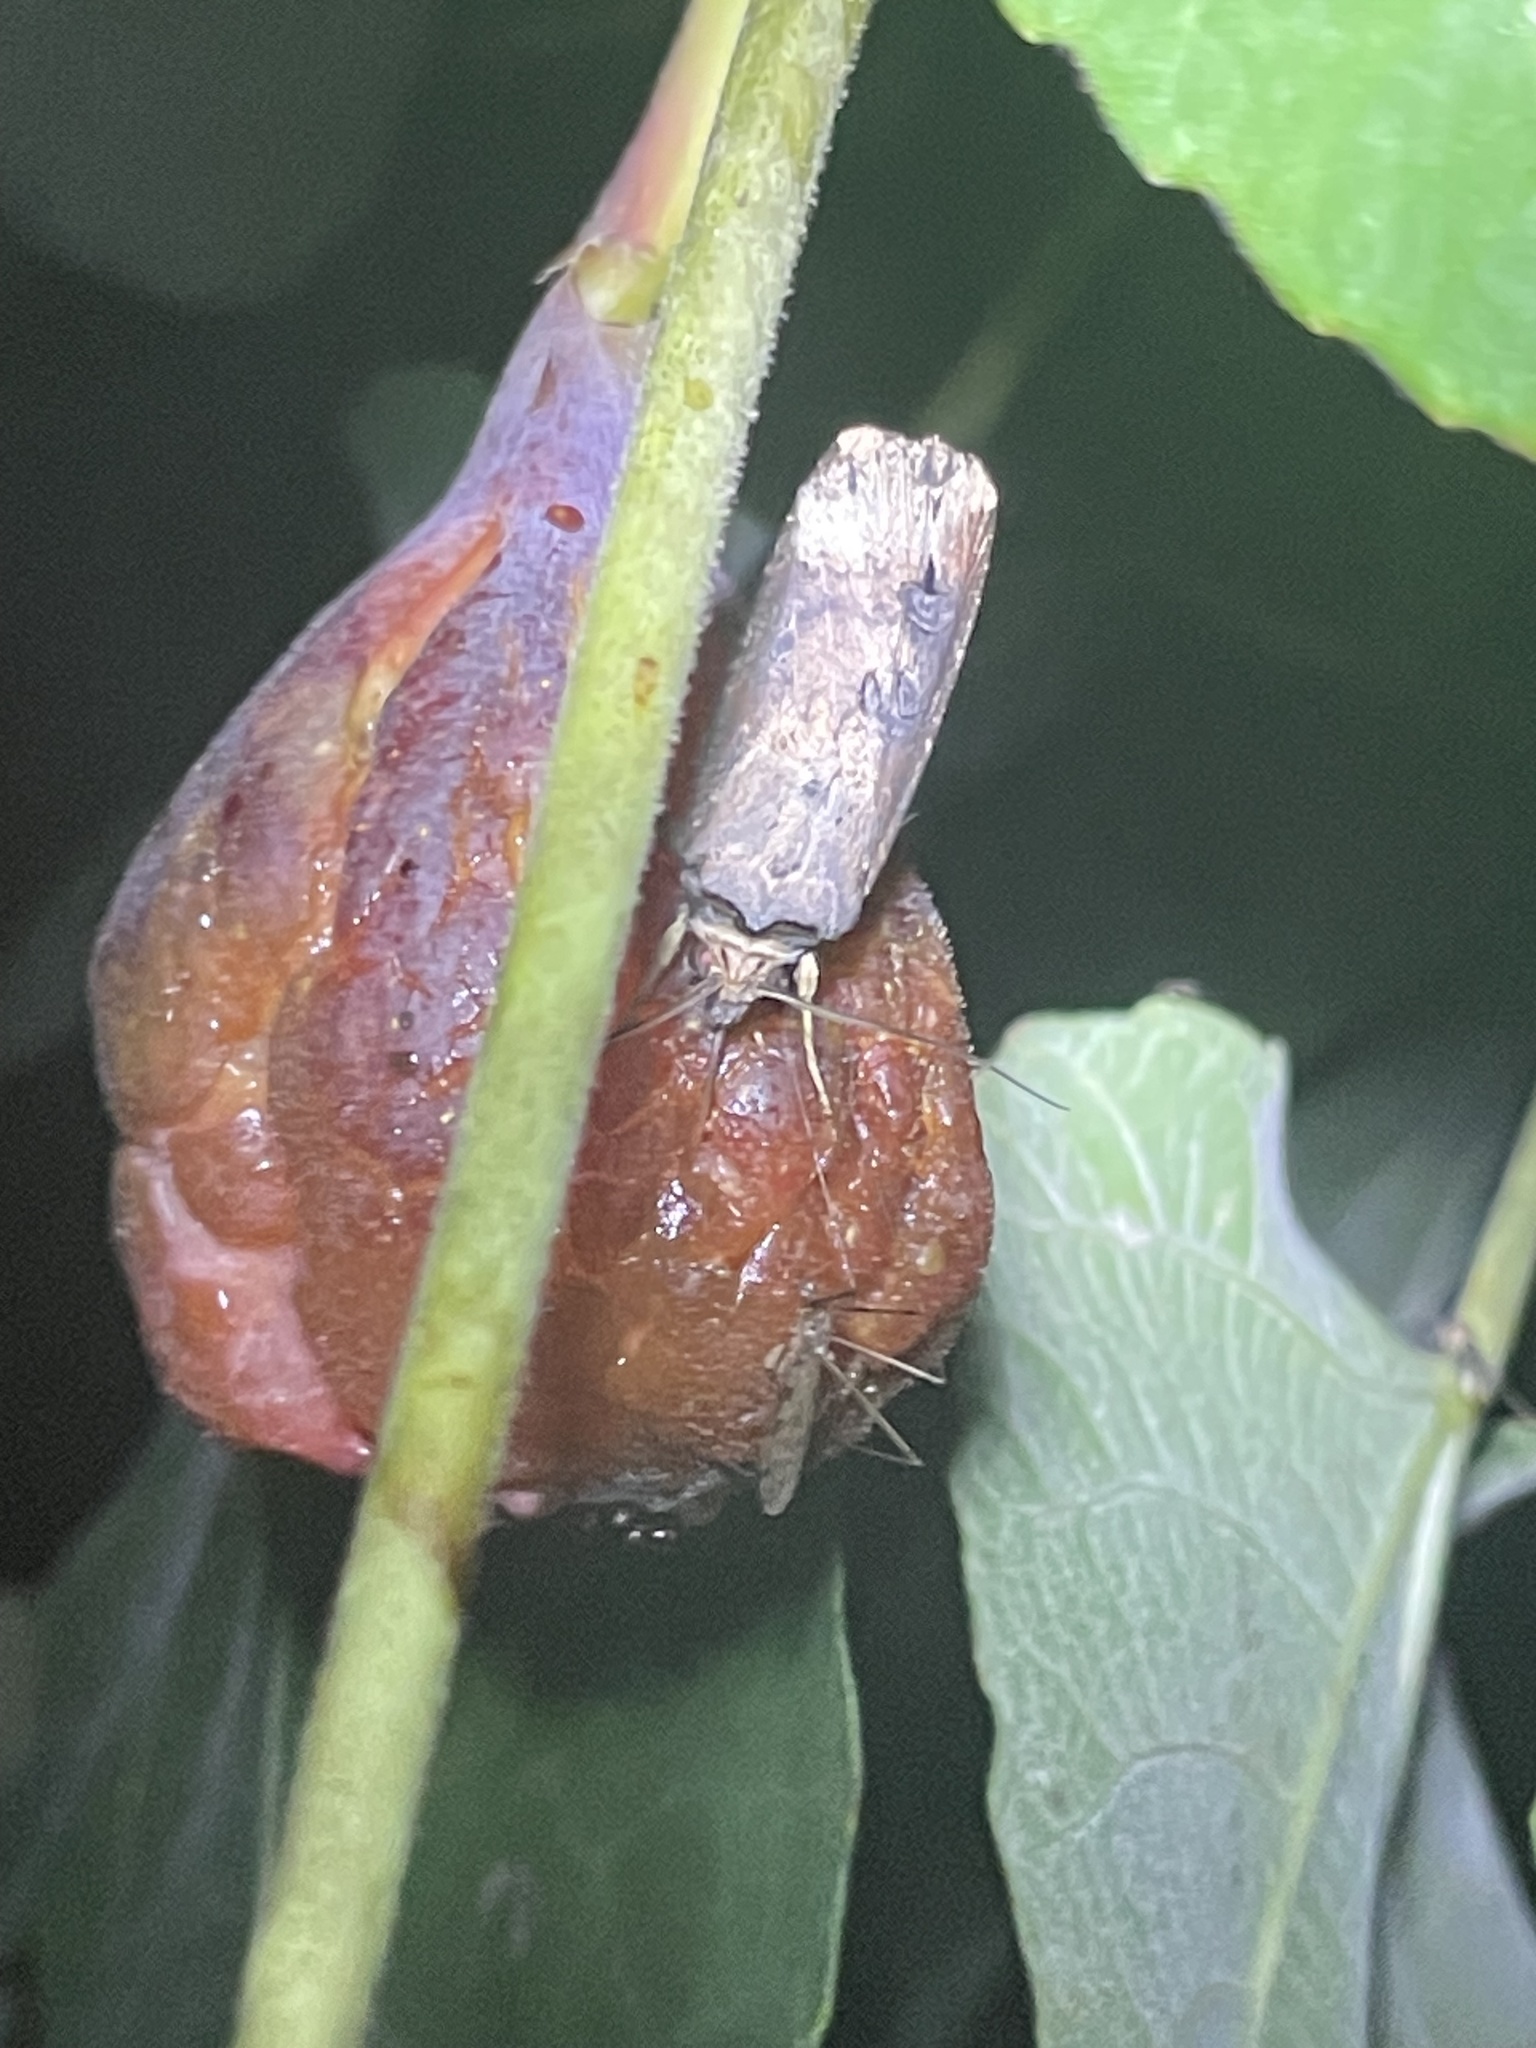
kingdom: Animalia
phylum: Arthropoda
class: Insecta
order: Lepidoptera
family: Noctuidae
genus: Agrotis
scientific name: Agrotis ipsilon
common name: Dark sword-grass
